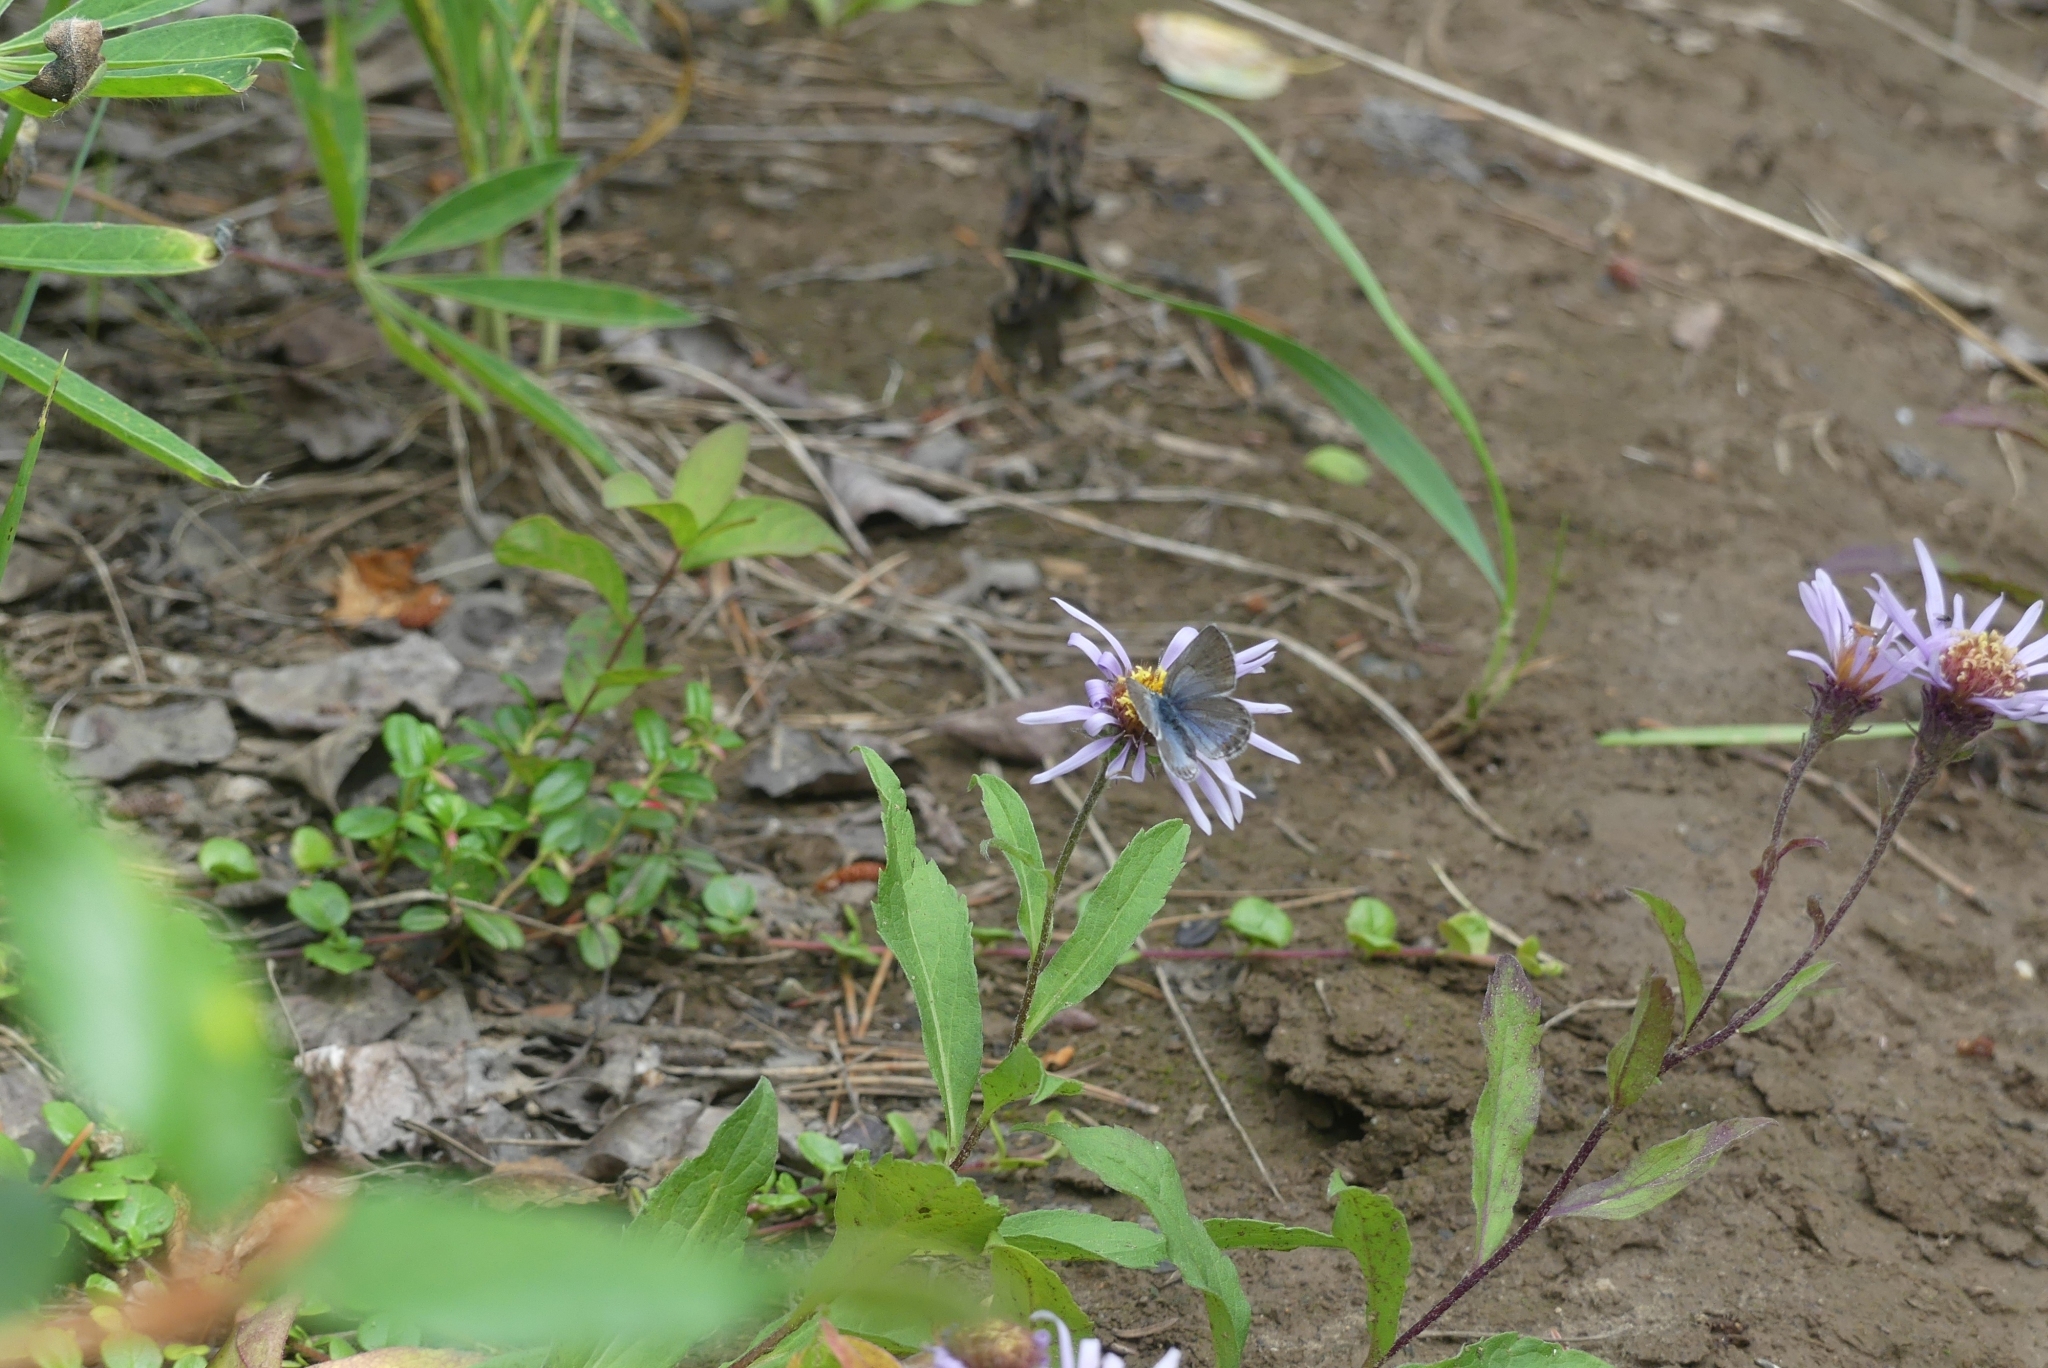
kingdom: Animalia
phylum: Arthropoda
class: Insecta
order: Lepidoptera
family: Lycaenidae
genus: Lycaeides
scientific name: Lycaeides idas
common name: Northern blue
